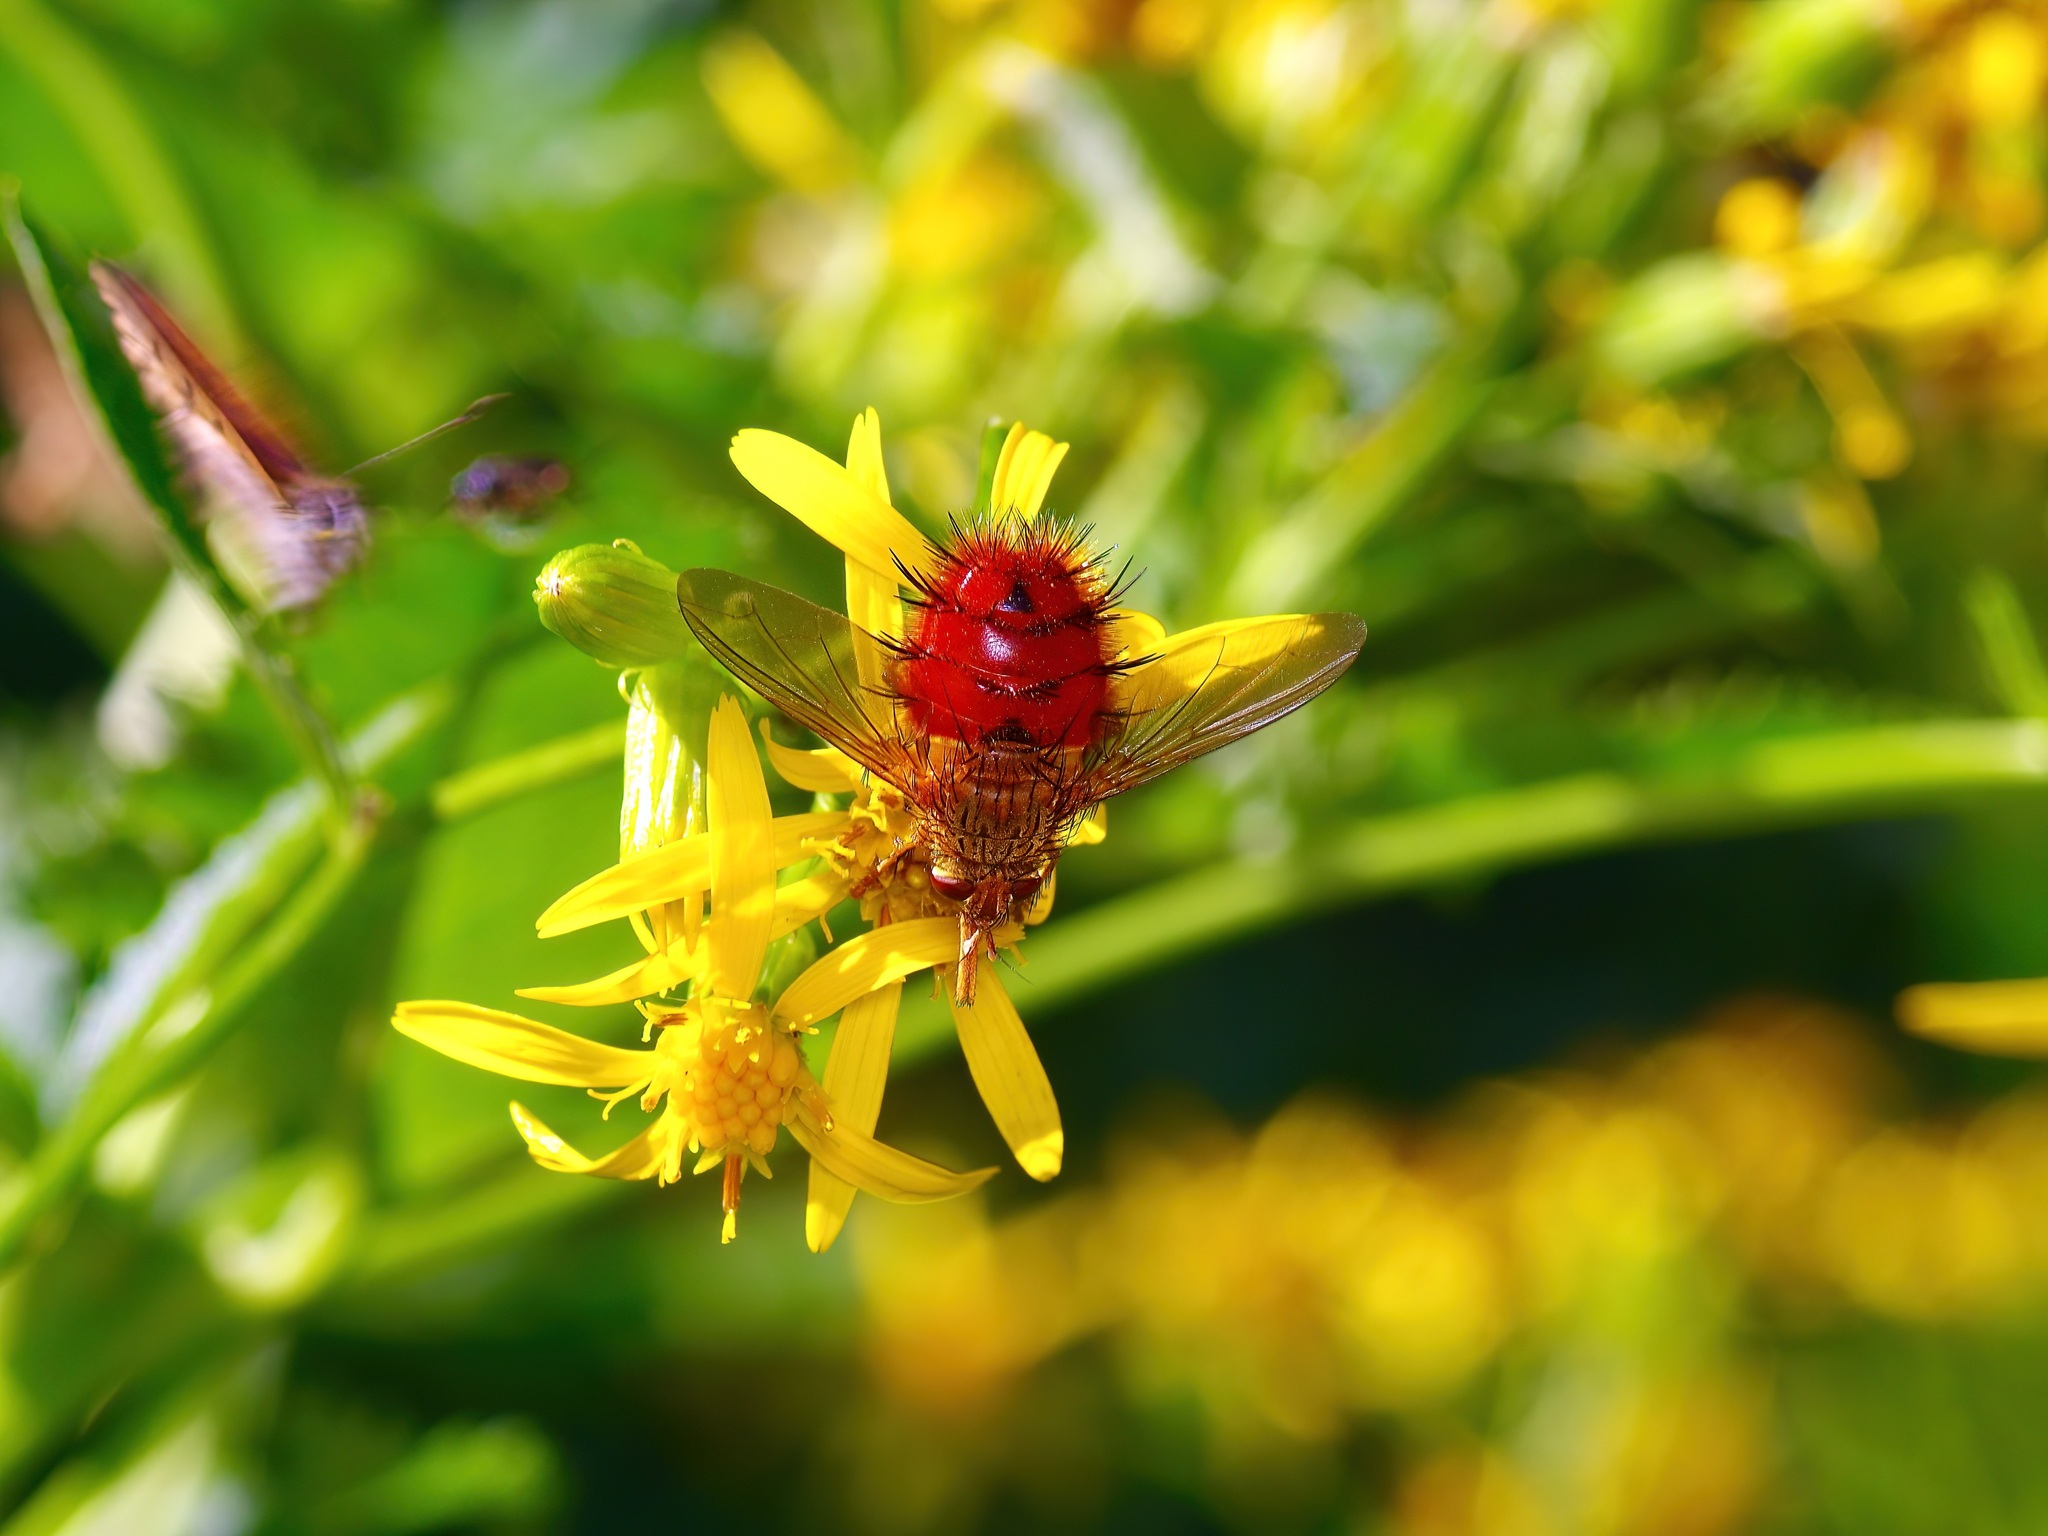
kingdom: Animalia
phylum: Arthropoda
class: Insecta
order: Diptera
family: Tachinidae
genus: Adejeania
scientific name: Adejeania vexatrix
